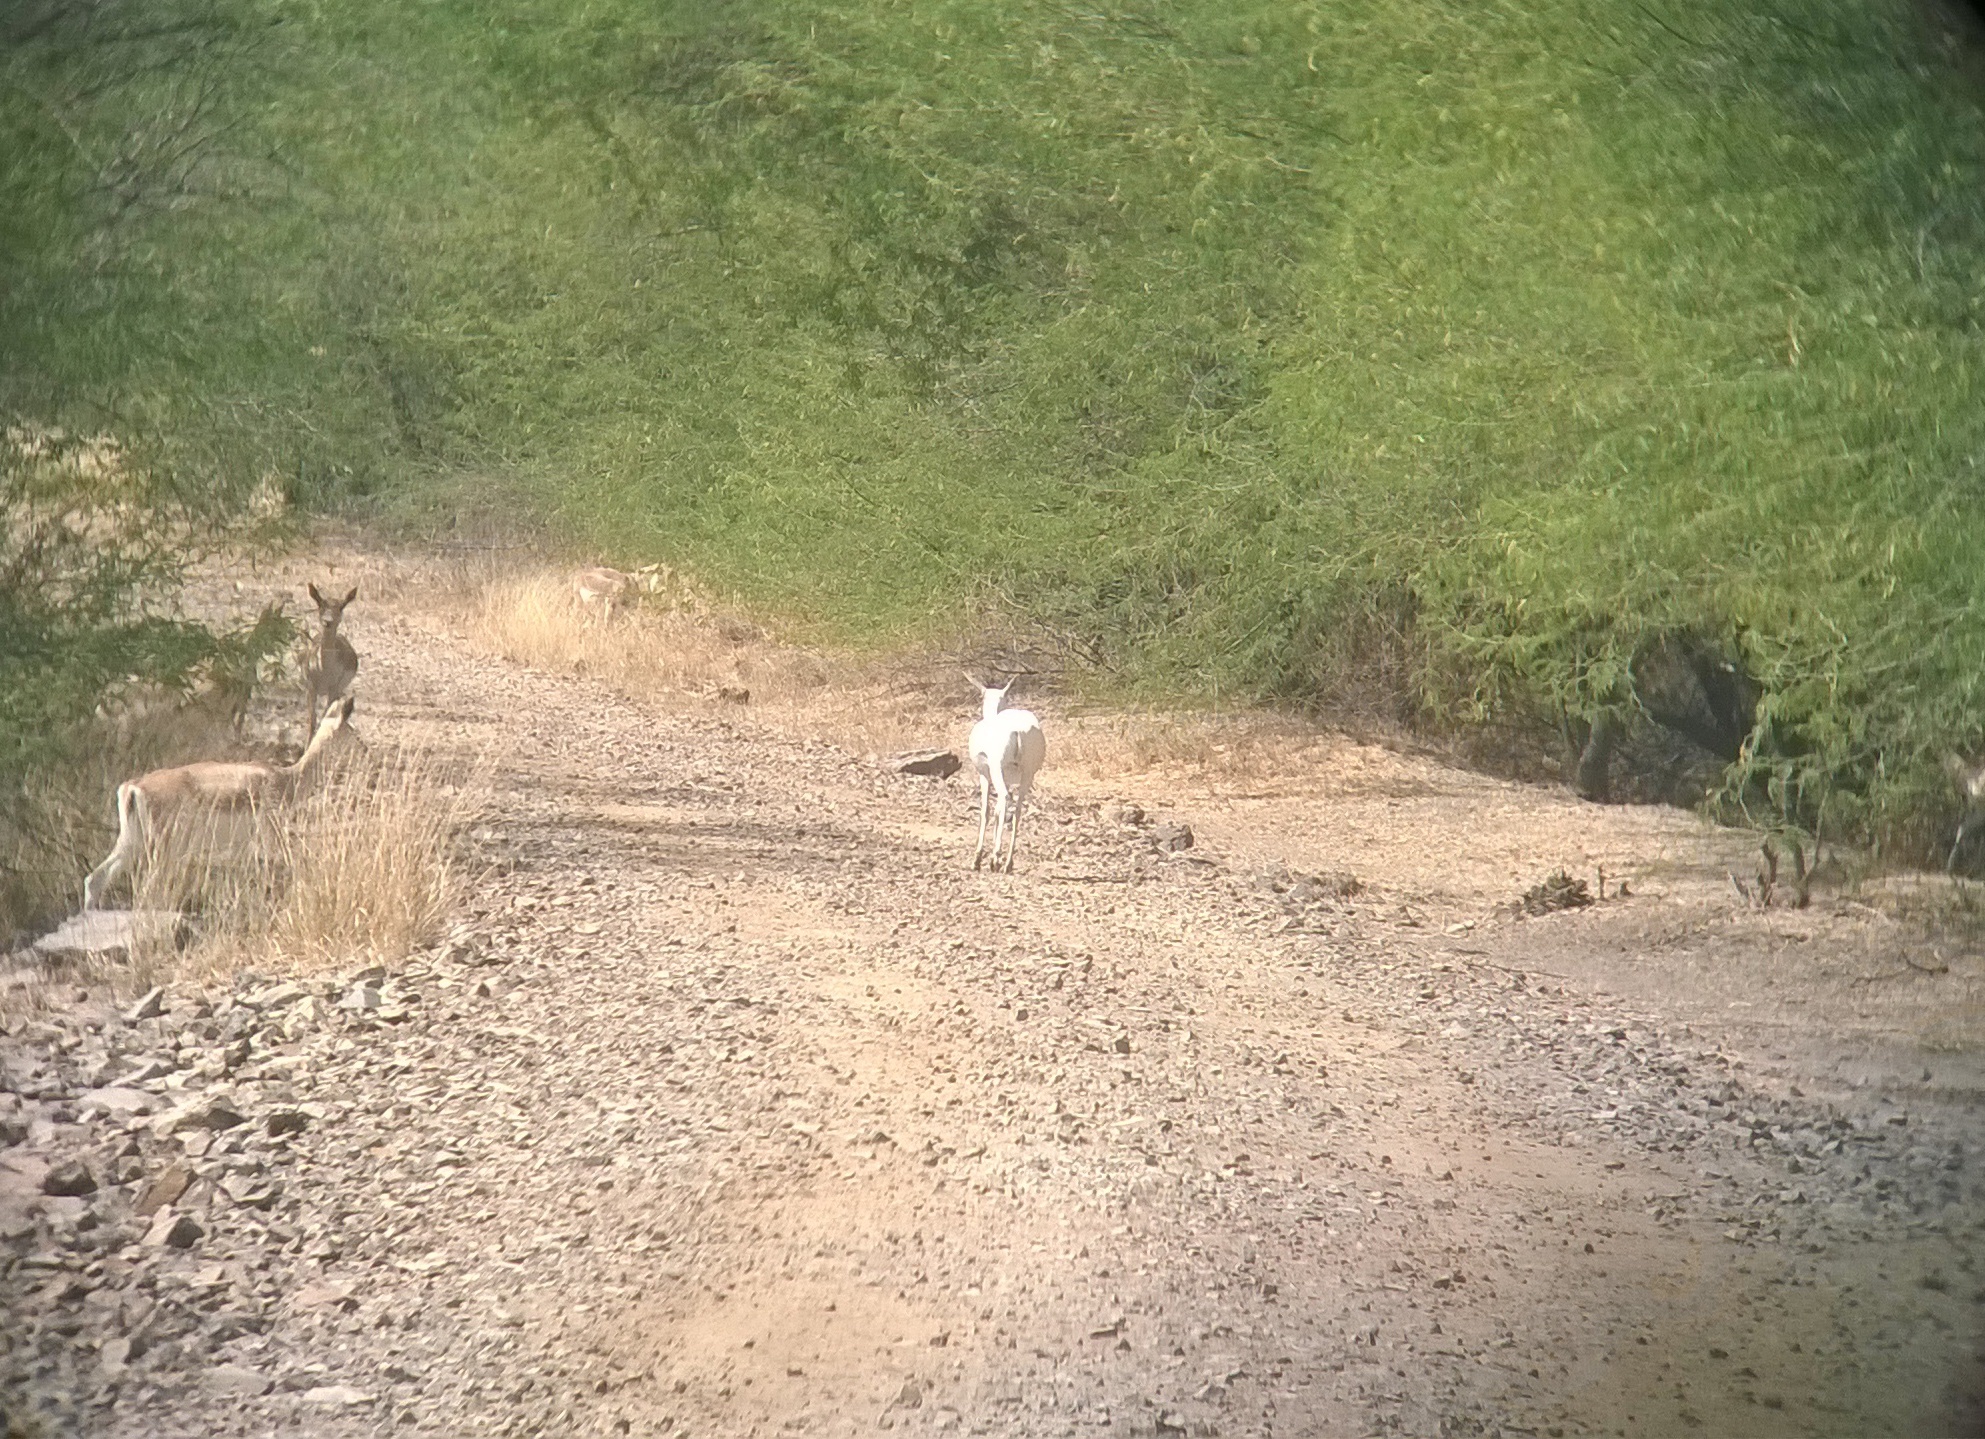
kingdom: Animalia
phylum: Chordata
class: Mammalia
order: Artiodactyla
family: Bovidae
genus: Antilope
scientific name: Antilope cervicapra
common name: Blackbuck
